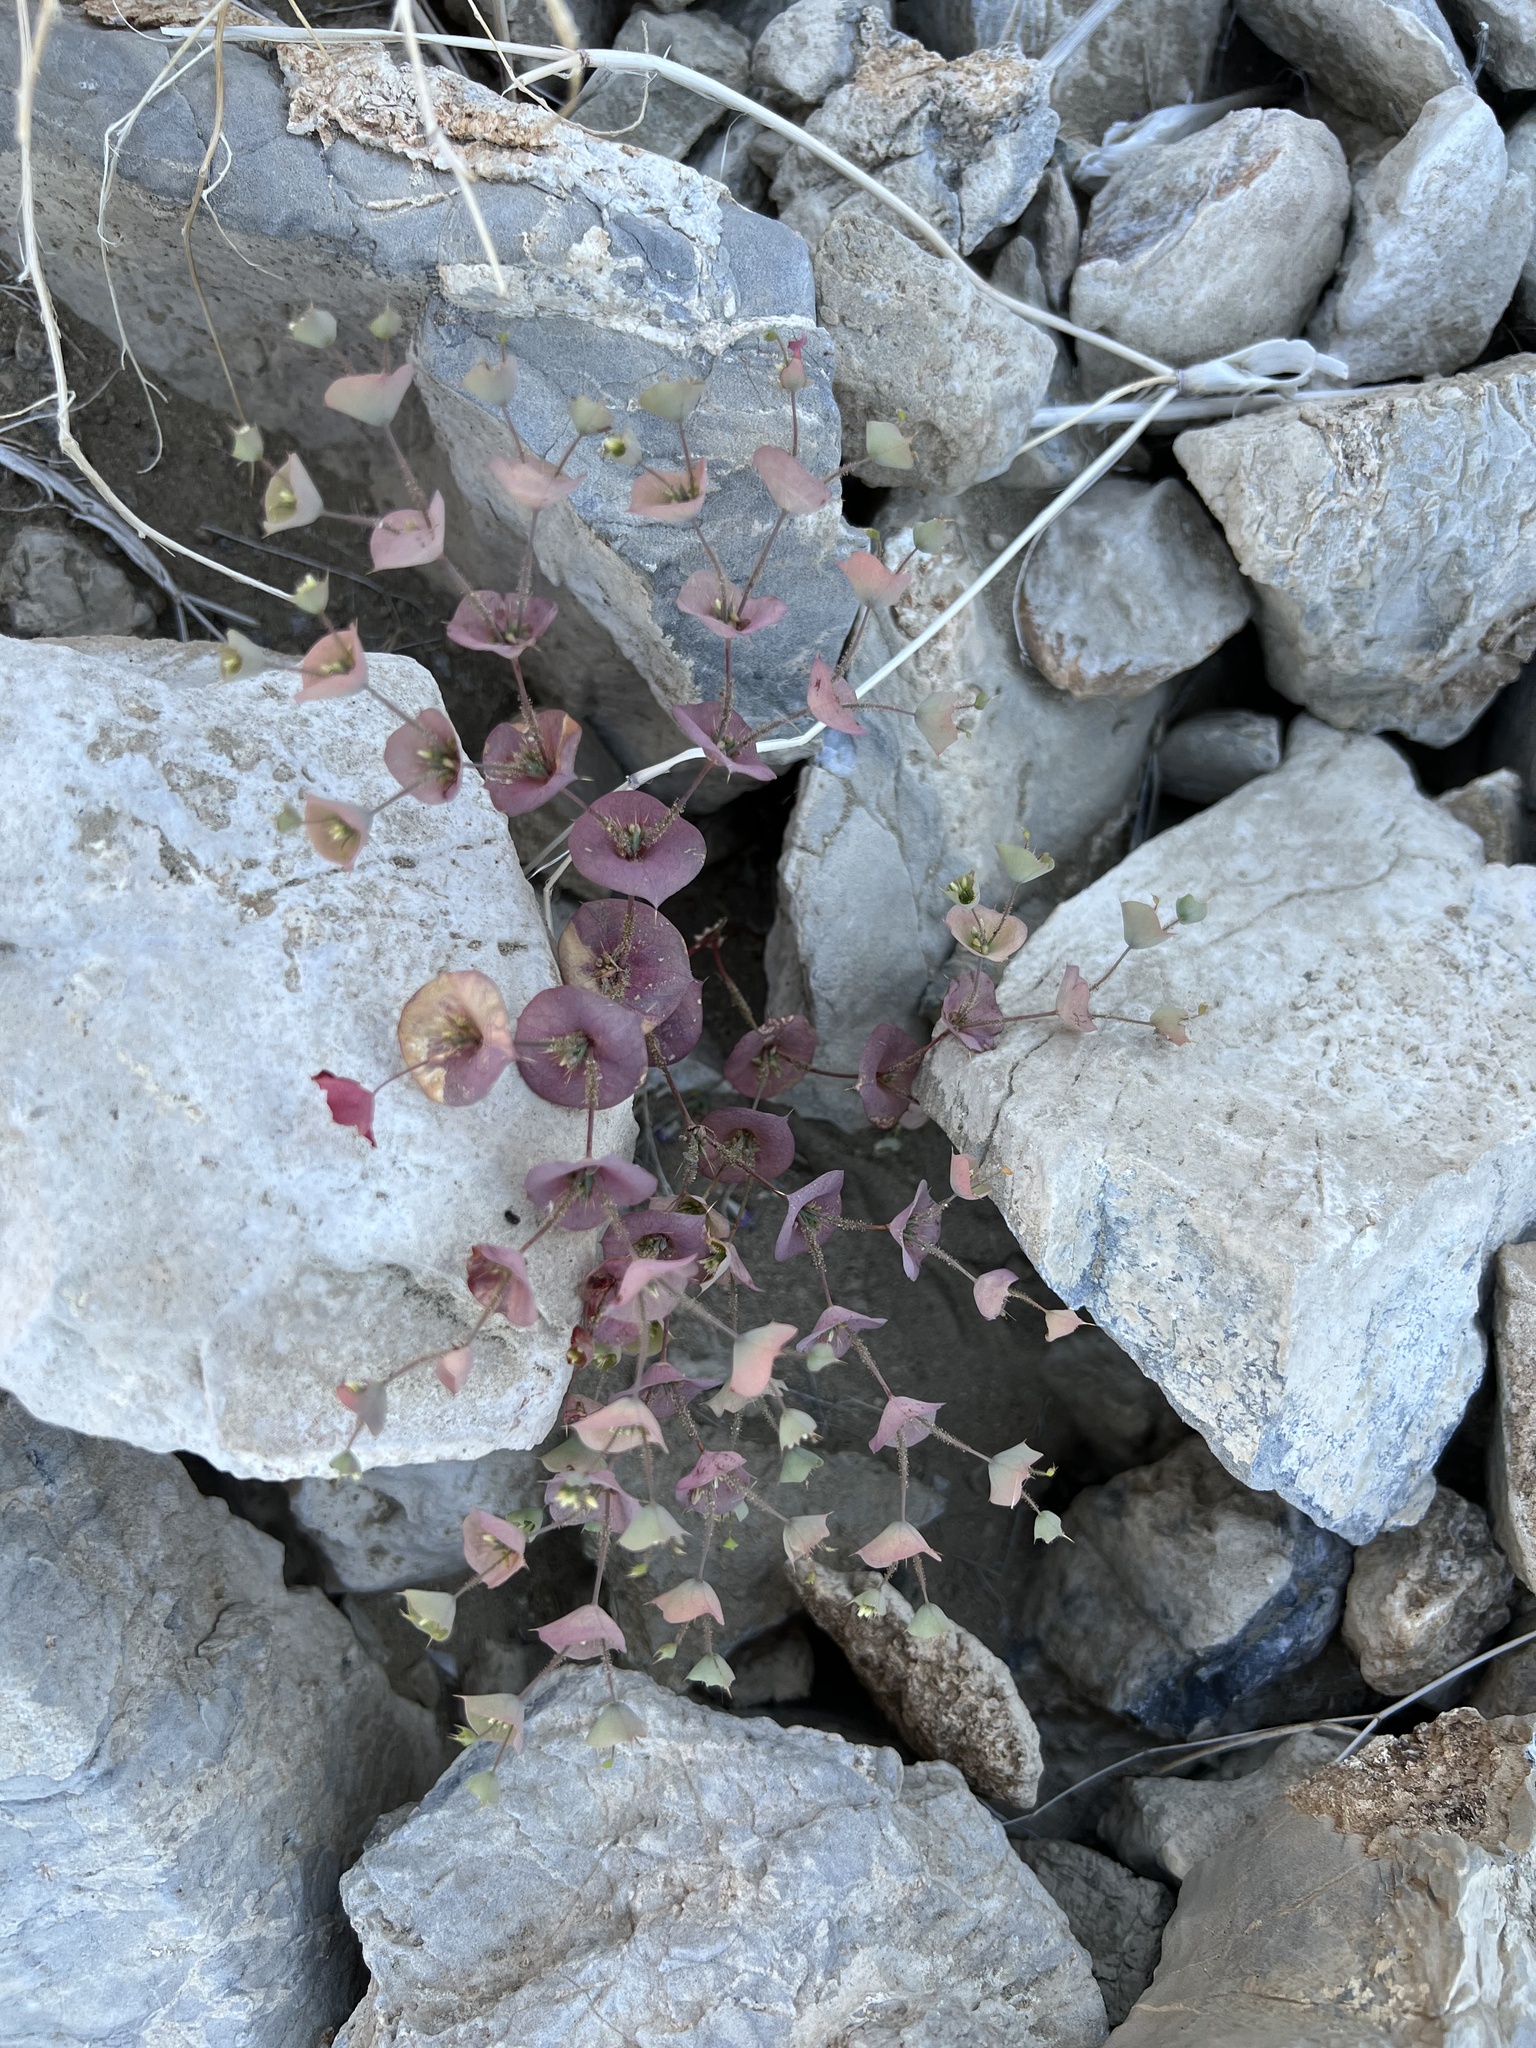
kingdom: Plantae
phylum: Tracheophyta
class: Magnoliopsida
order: Caryophyllales
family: Polygonaceae
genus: Oxytheca
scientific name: Oxytheca perfoliata
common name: Round-leaf puncturebract
